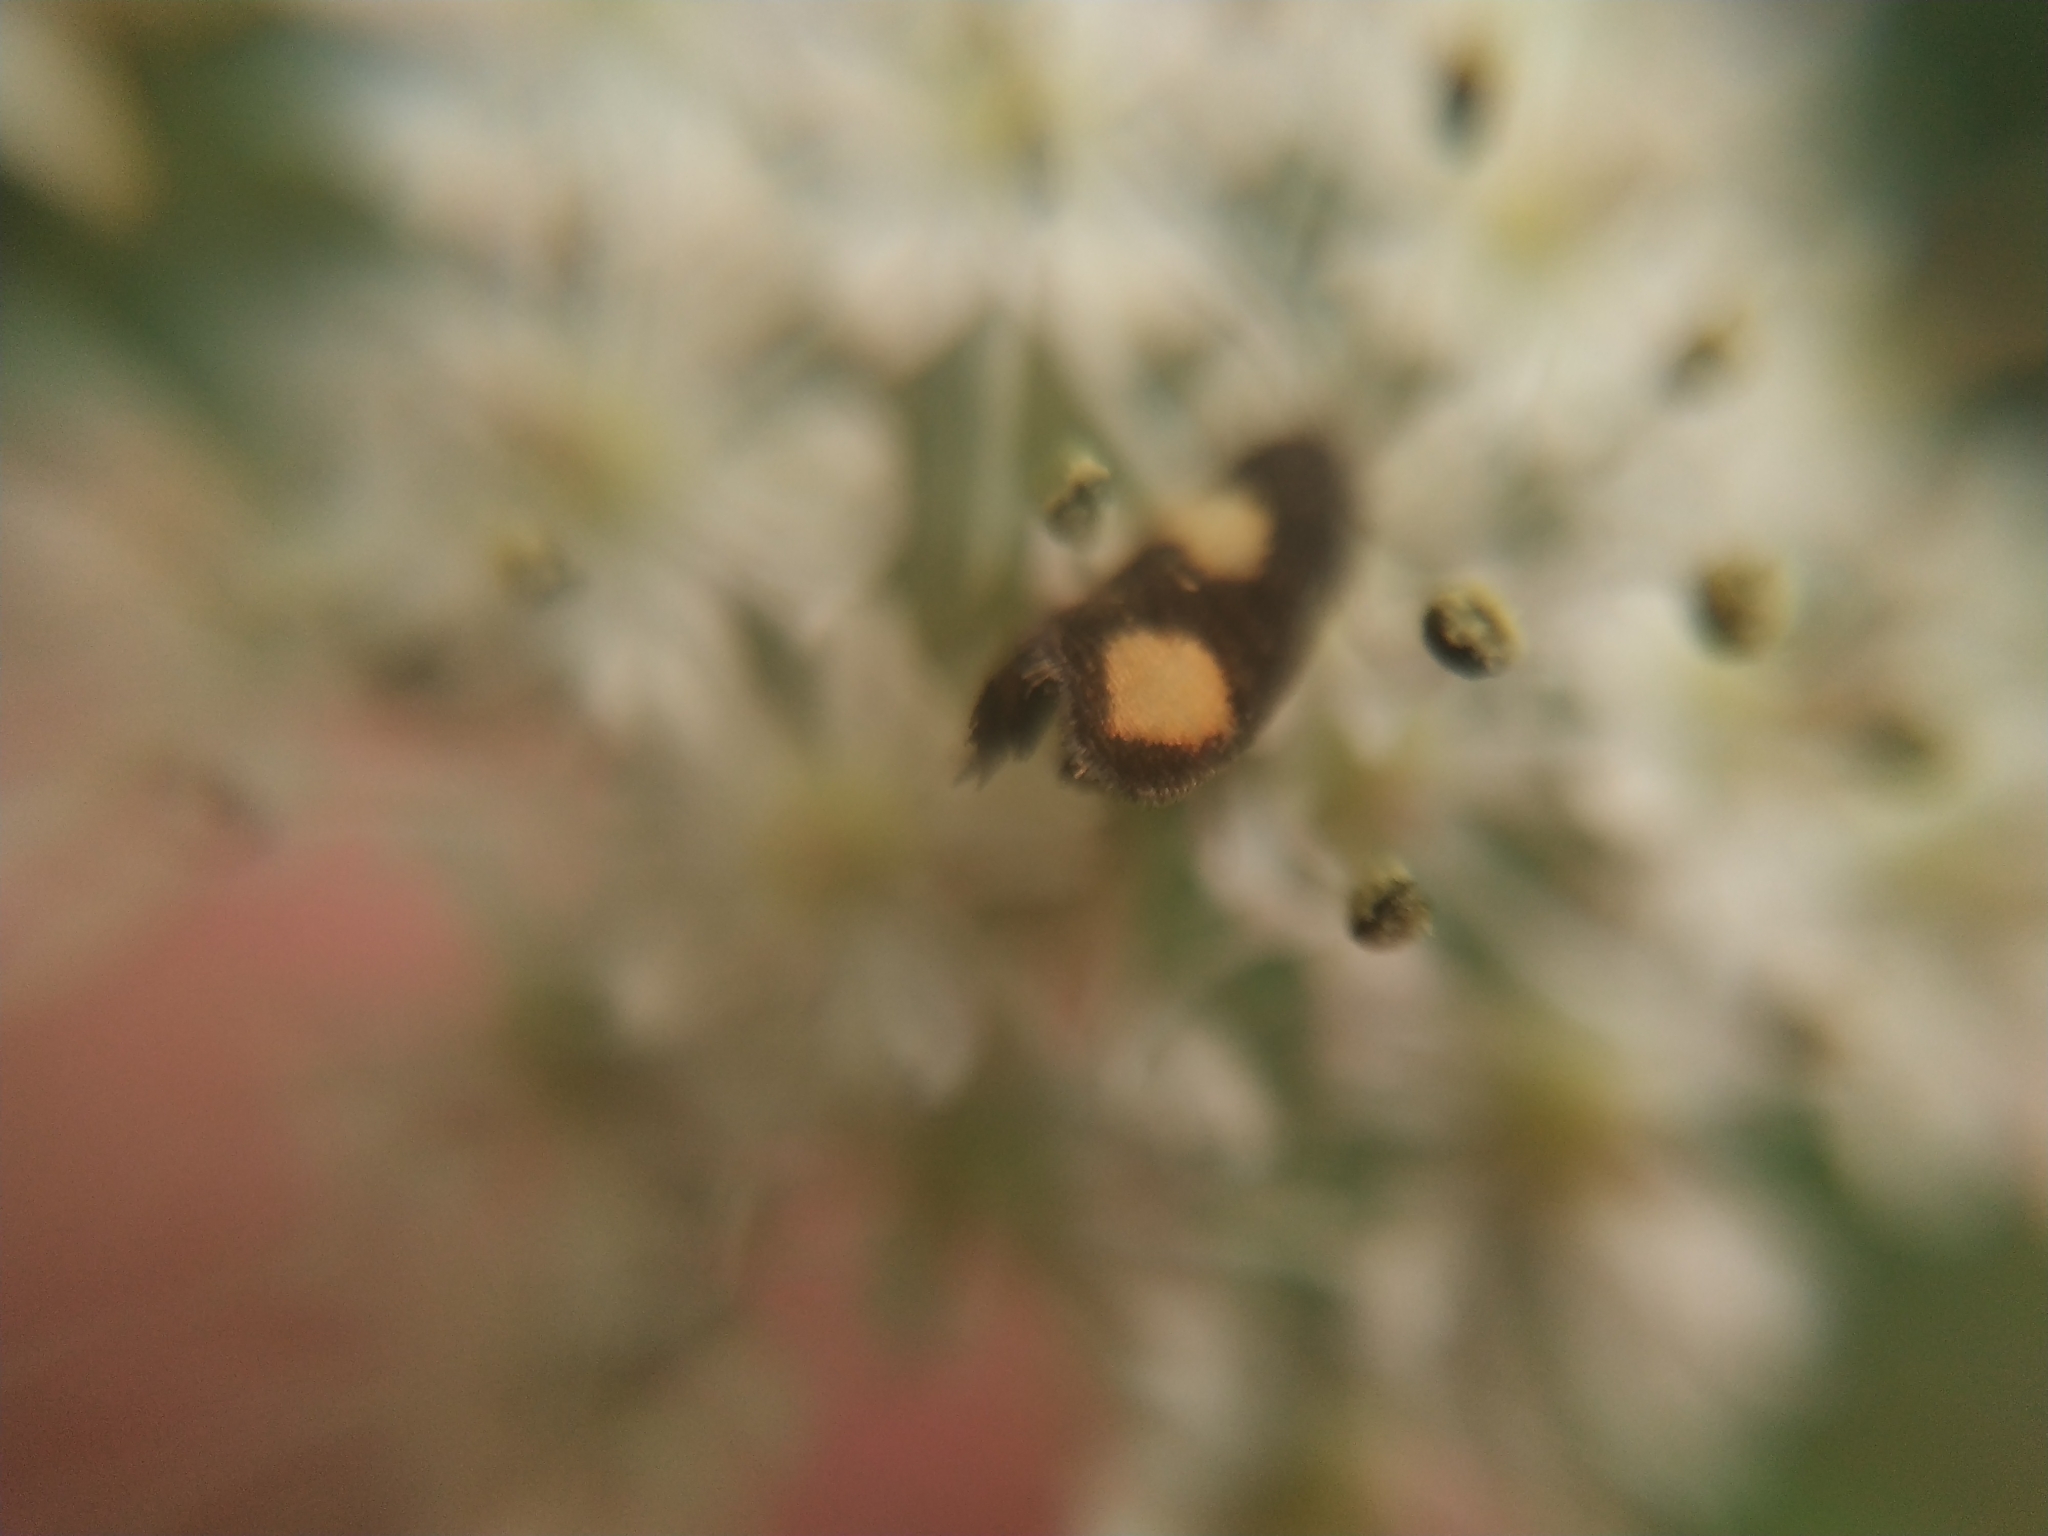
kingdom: Animalia
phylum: Arthropoda
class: Insecta
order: Lepidoptera
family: Tortricidae
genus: Pammene
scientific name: Pammene aurana
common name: Orange-spot piercer
